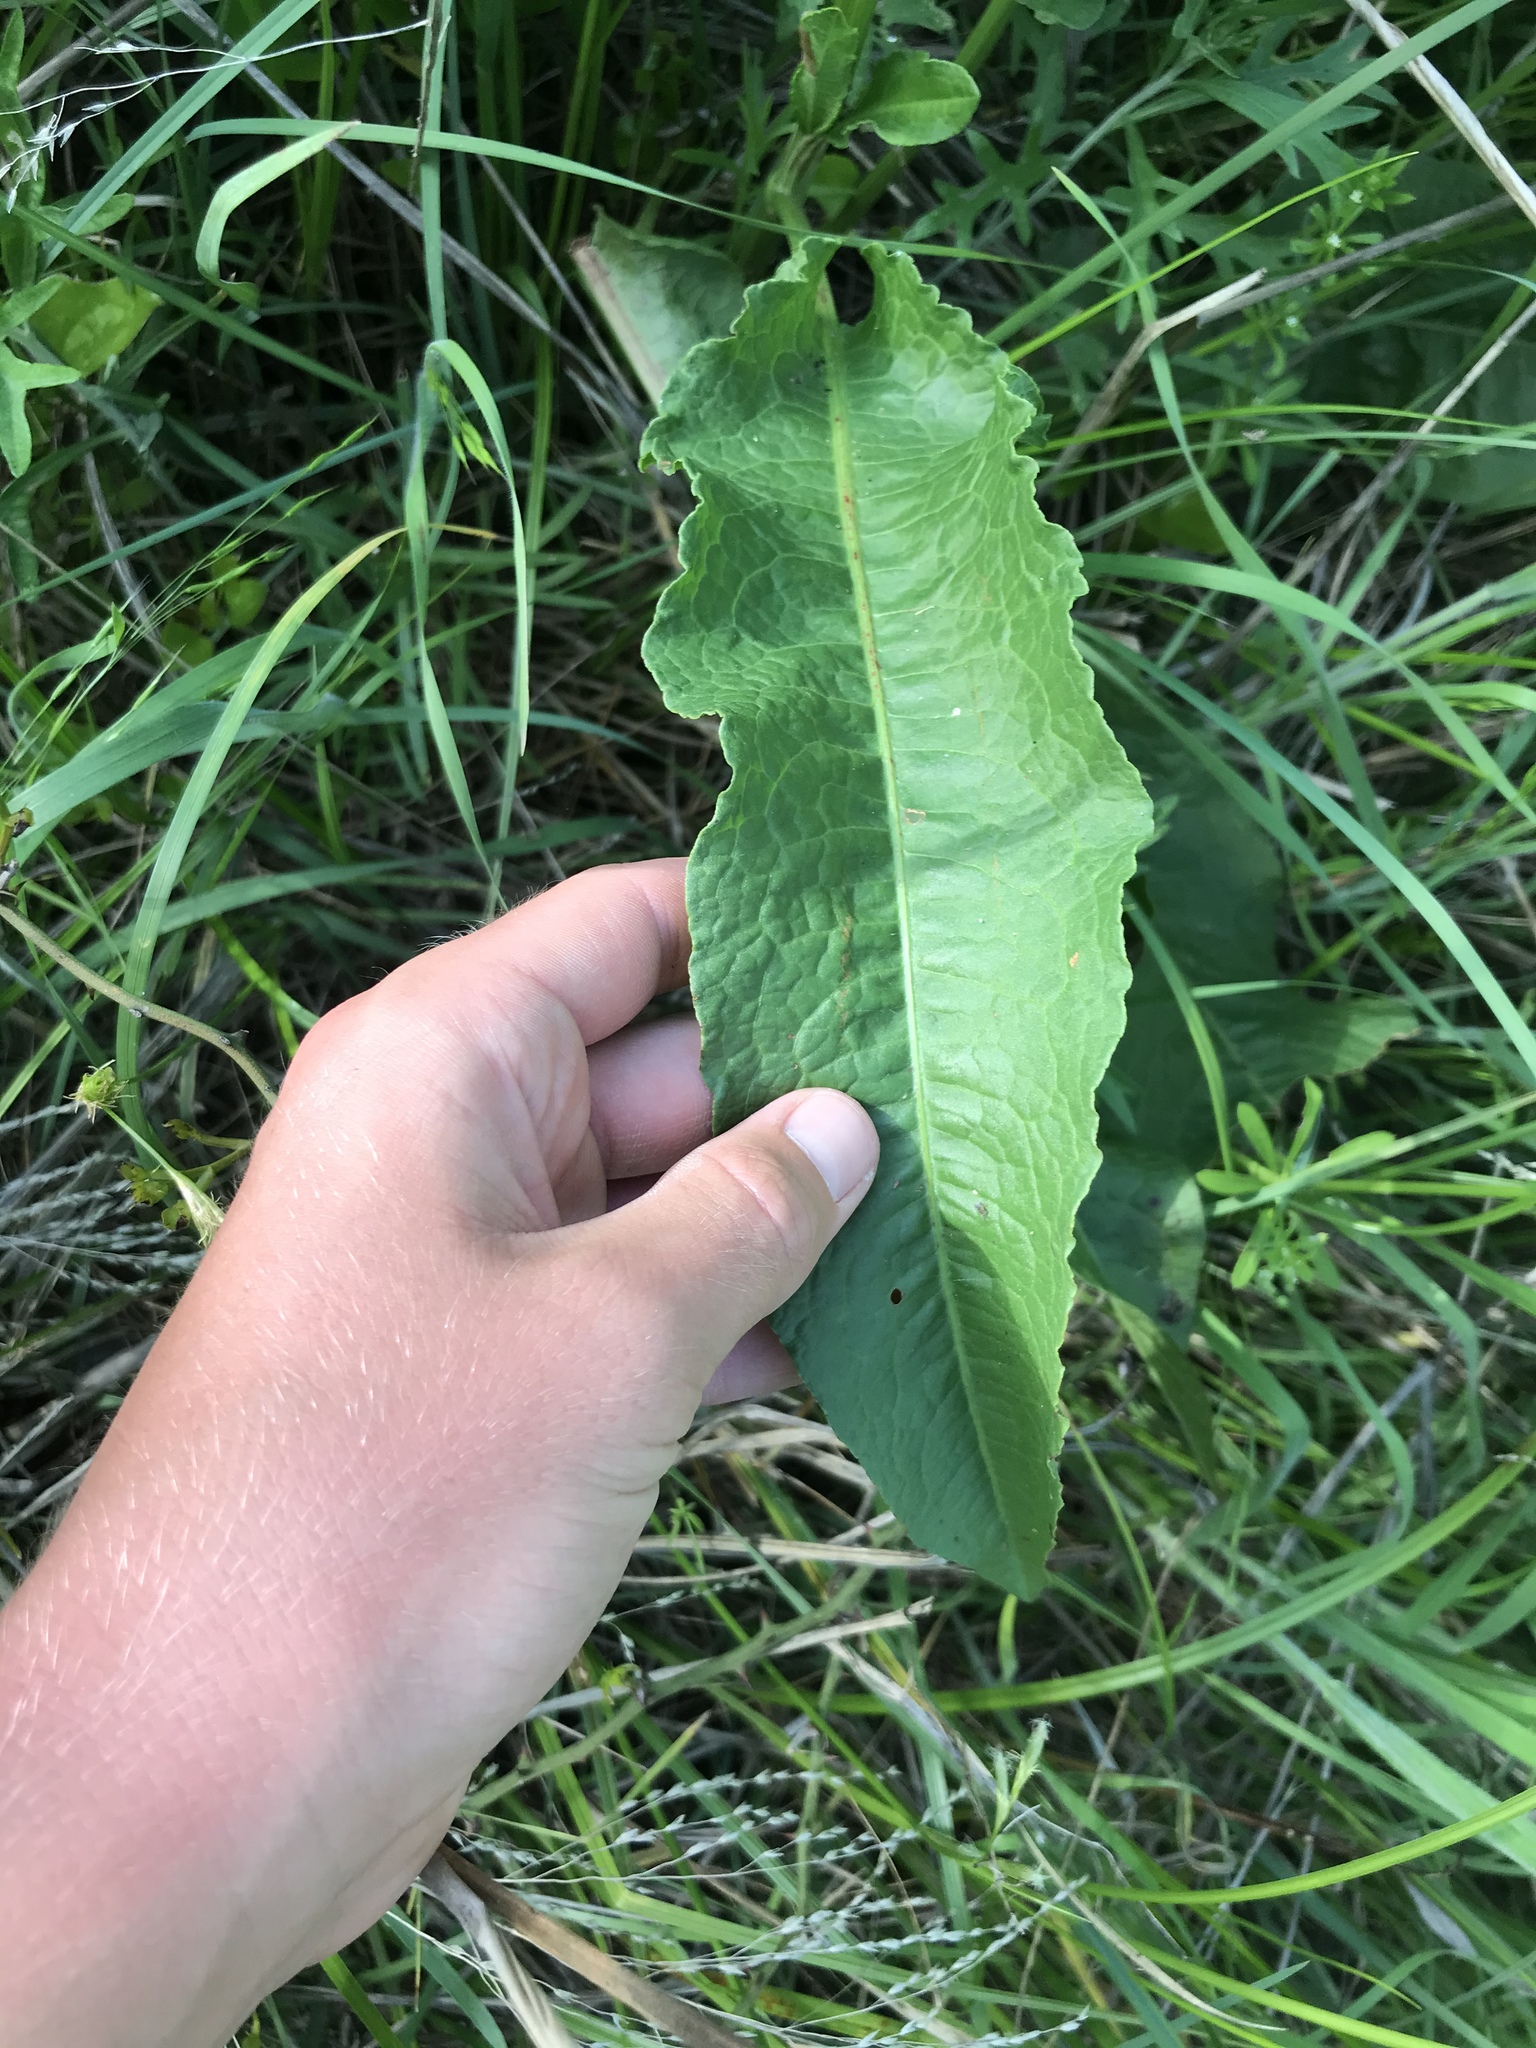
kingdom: Plantae
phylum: Tracheophyta
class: Magnoliopsida
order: Caryophyllales
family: Polygonaceae
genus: Rumex
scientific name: Rumex crispus
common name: Curled dock
